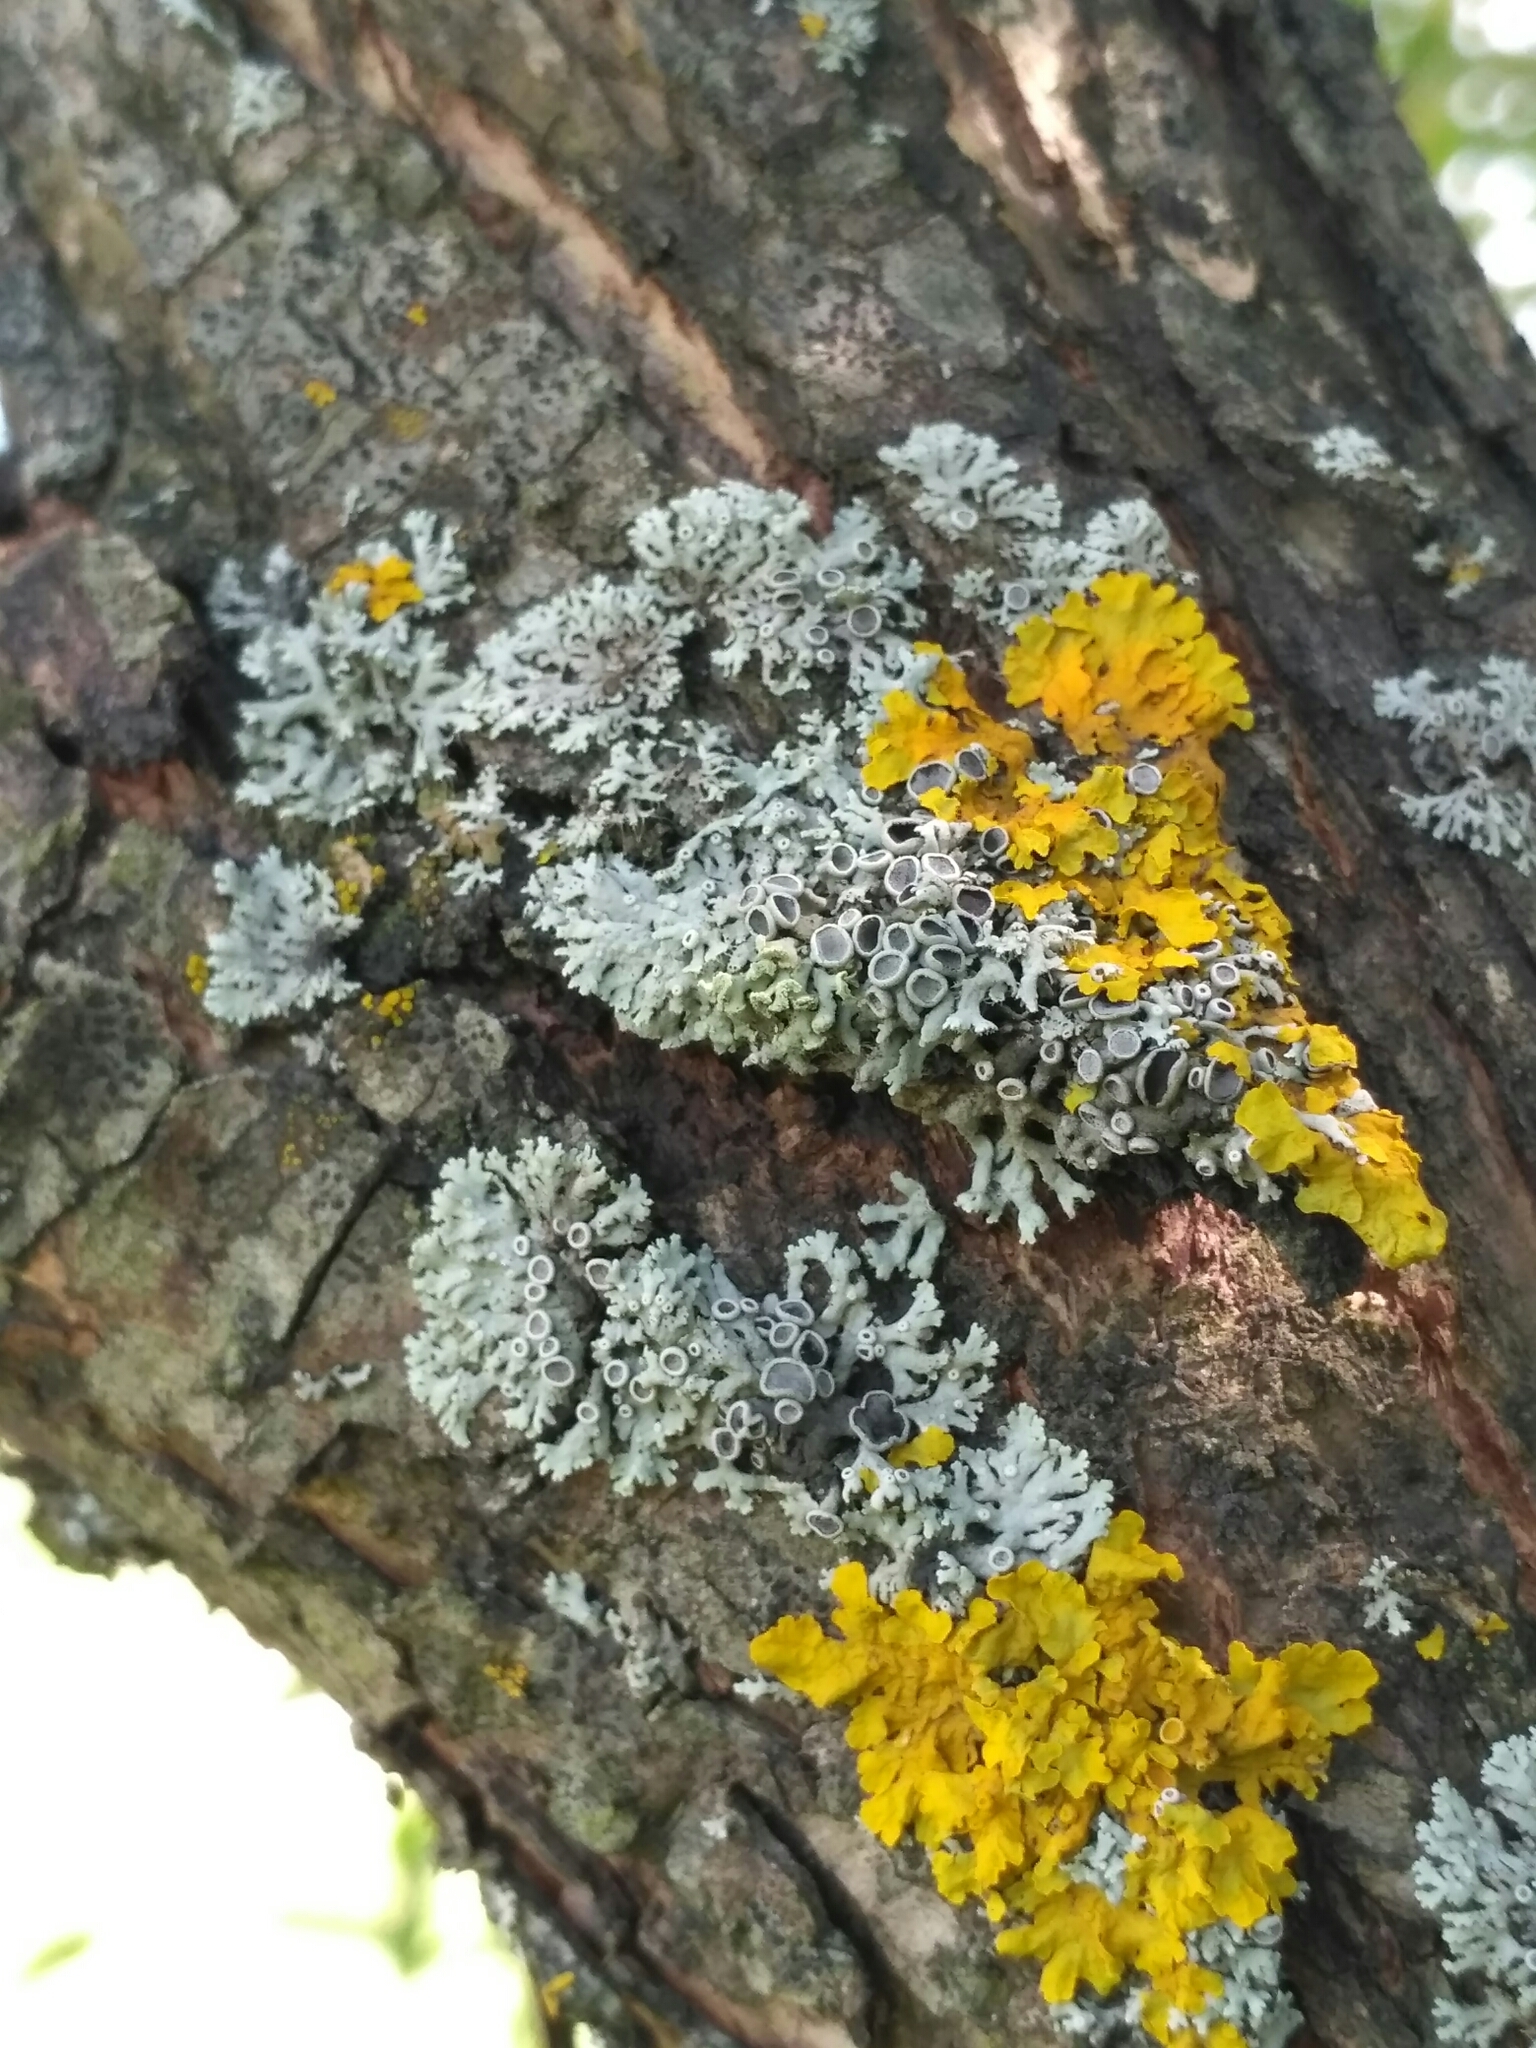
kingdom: Fungi
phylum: Ascomycota
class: Lecanoromycetes
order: Caliciales
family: Physciaceae
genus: Physcia
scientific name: Physcia stellaris
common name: Star rosette lichen
